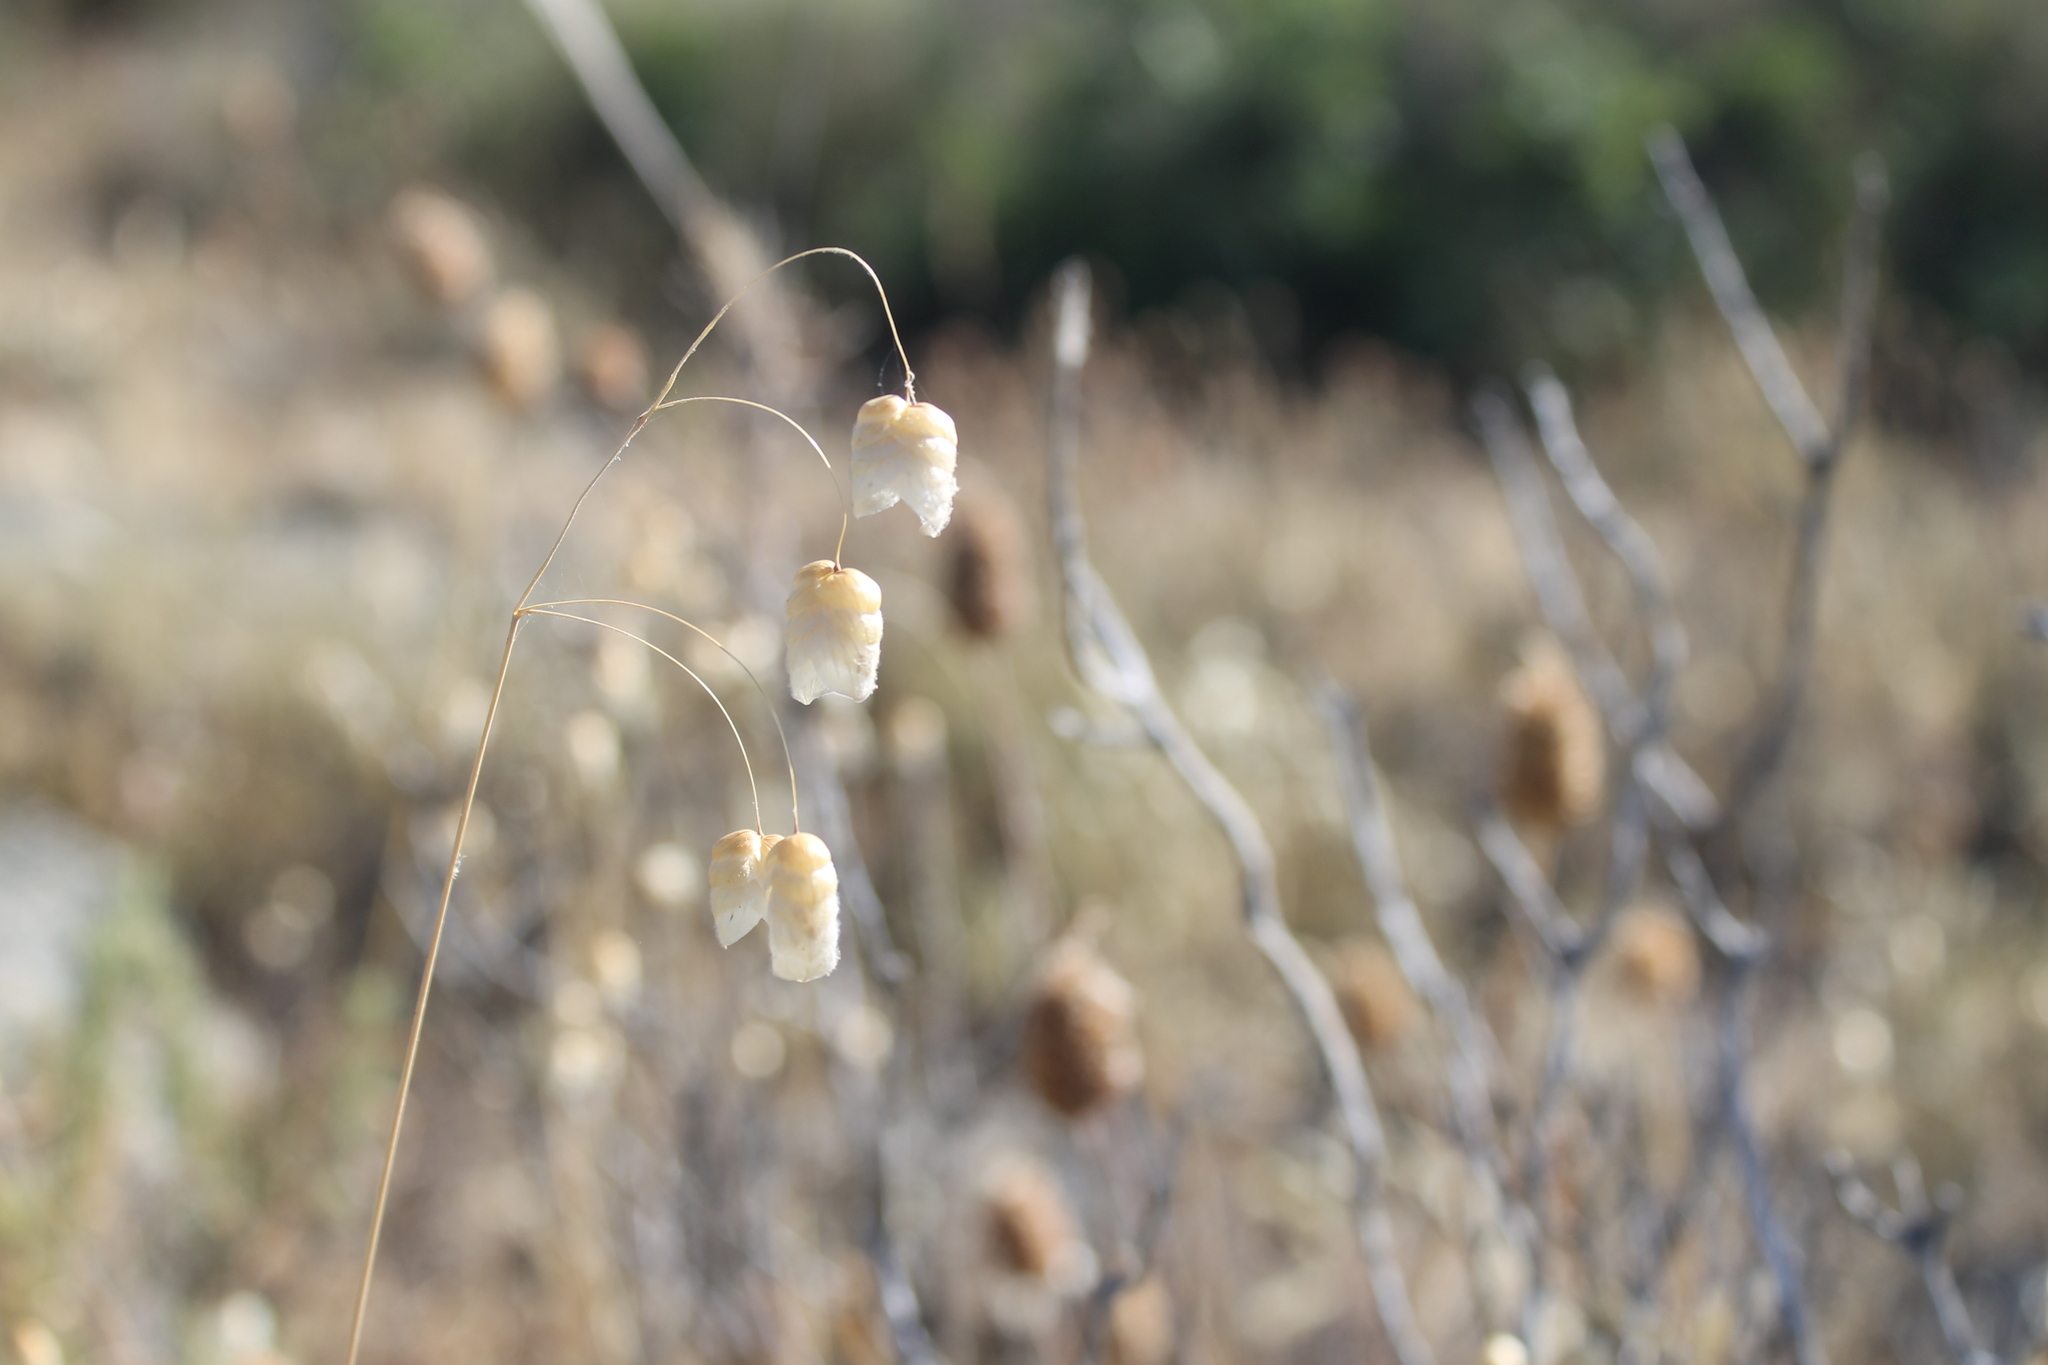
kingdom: Plantae
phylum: Tracheophyta
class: Liliopsida
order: Poales
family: Poaceae
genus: Briza
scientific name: Briza maxima
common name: Big quakinggrass
